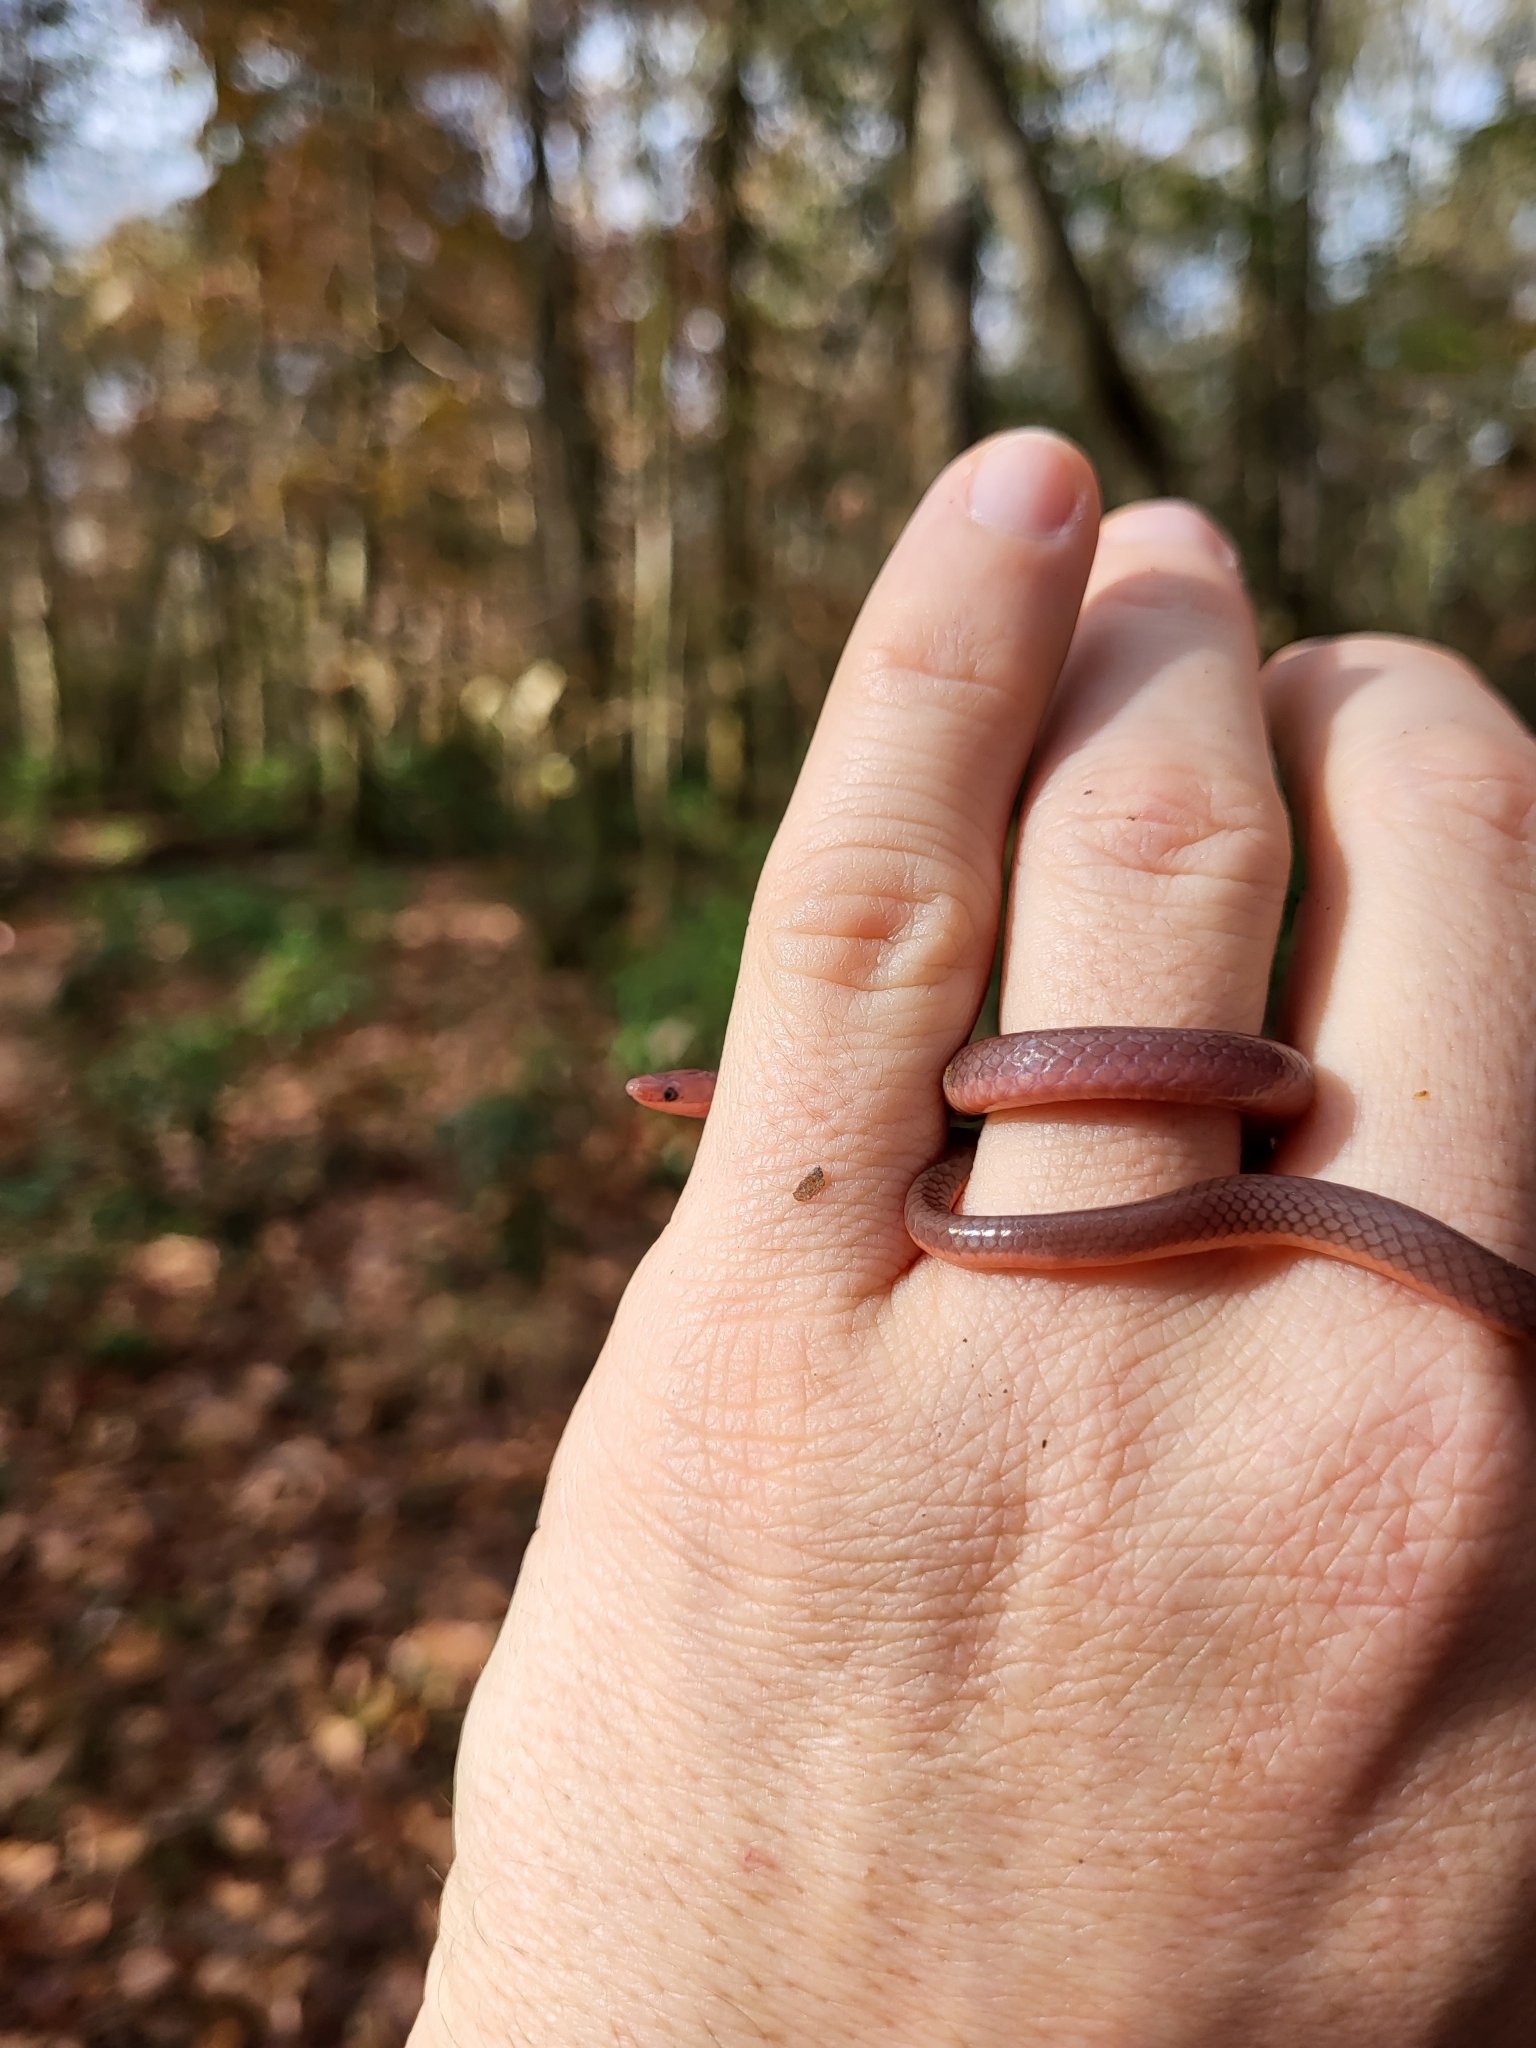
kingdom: Animalia
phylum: Chordata
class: Squamata
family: Colubridae
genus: Carphophis
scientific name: Carphophis amoenus
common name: Eastern worm snake
